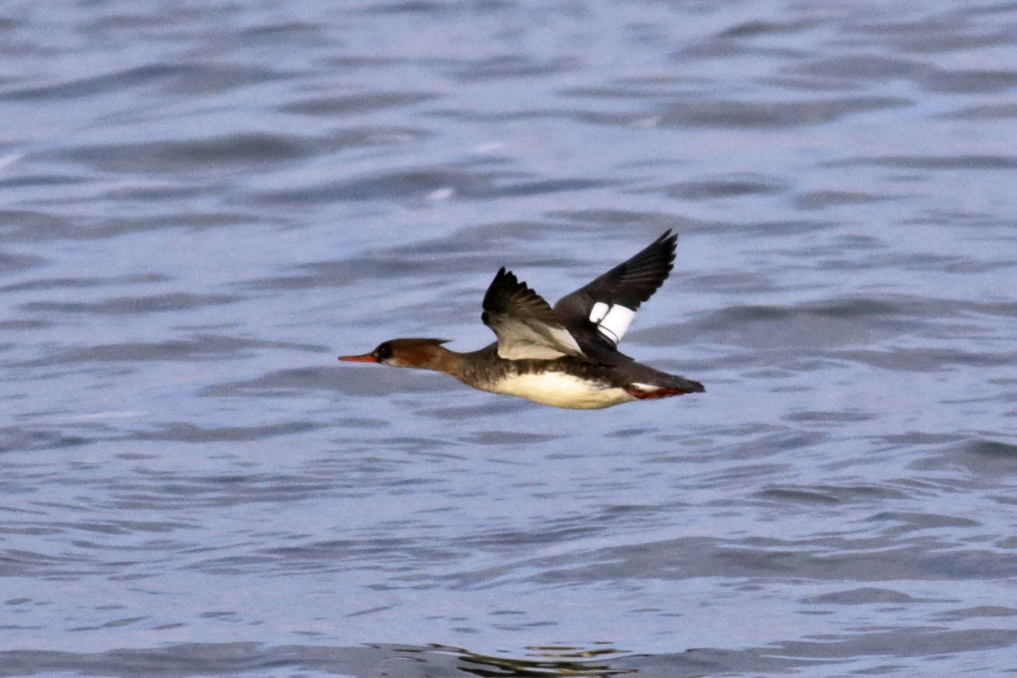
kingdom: Animalia
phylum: Chordata
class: Aves
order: Anseriformes
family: Anatidae
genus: Mergus
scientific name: Mergus serrator
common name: Red-breasted merganser
